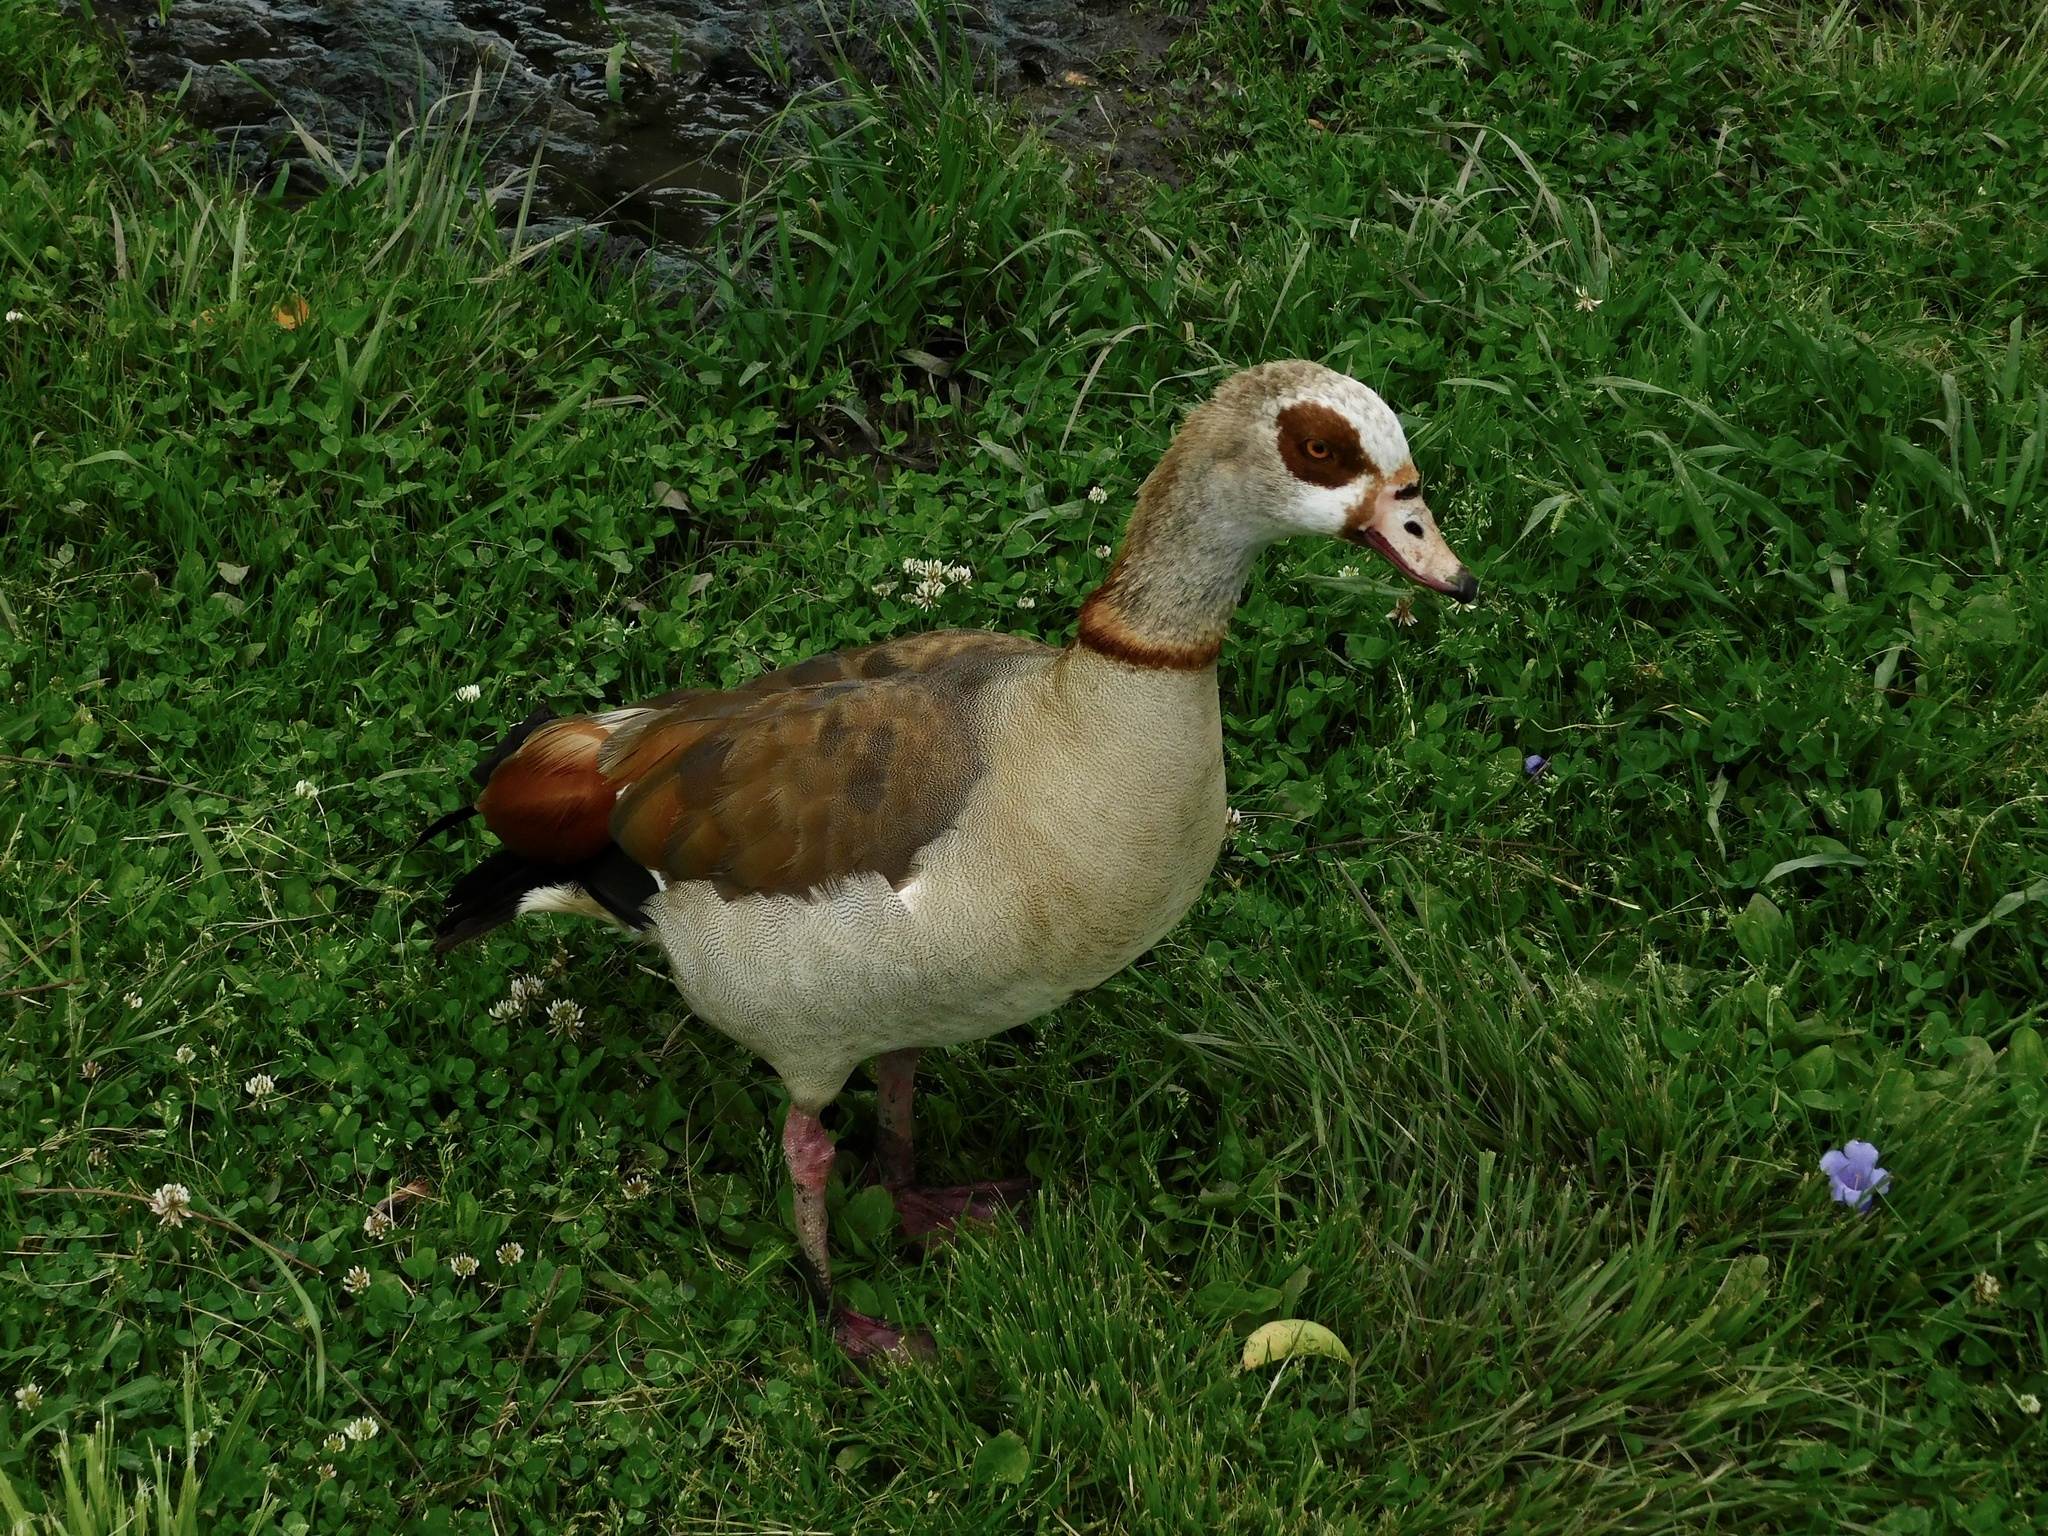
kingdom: Animalia
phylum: Chordata
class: Aves
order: Anseriformes
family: Anatidae
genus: Alopochen
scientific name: Alopochen aegyptiaca
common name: Egyptian goose
